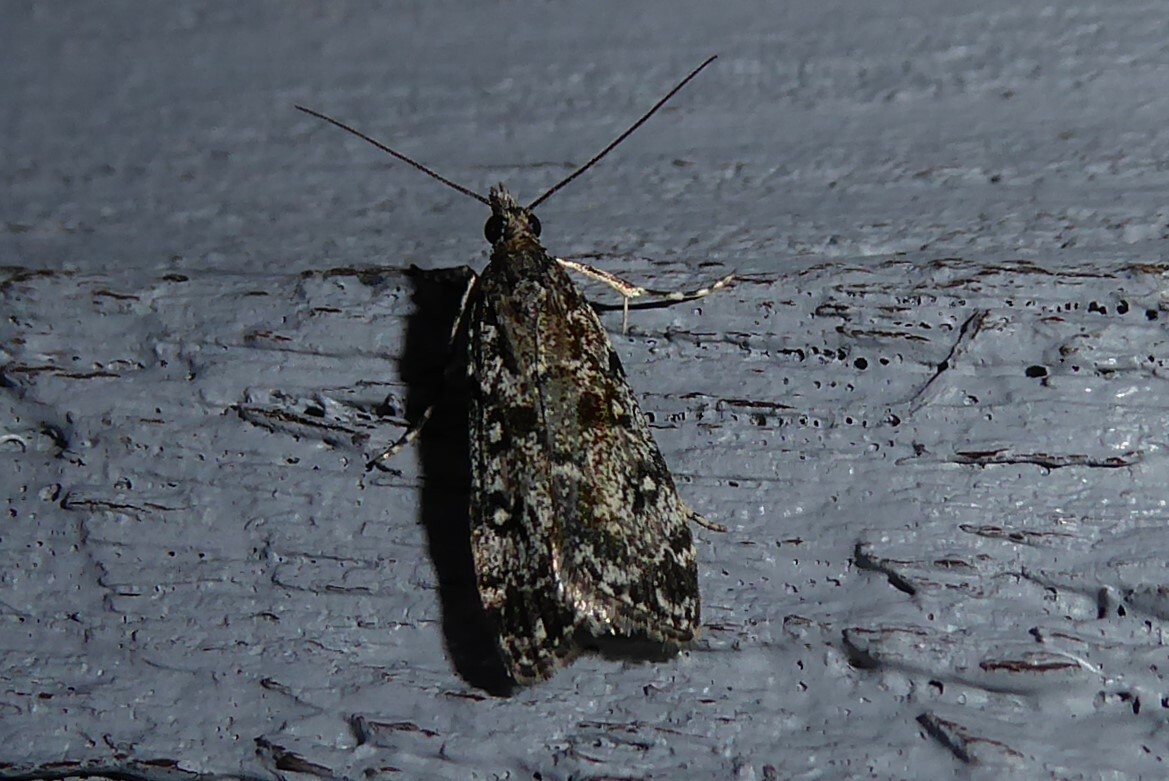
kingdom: Animalia
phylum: Arthropoda
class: Insecta
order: Lepidoptera
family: Crambidae
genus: Eudonia
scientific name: Eudonia philerga
